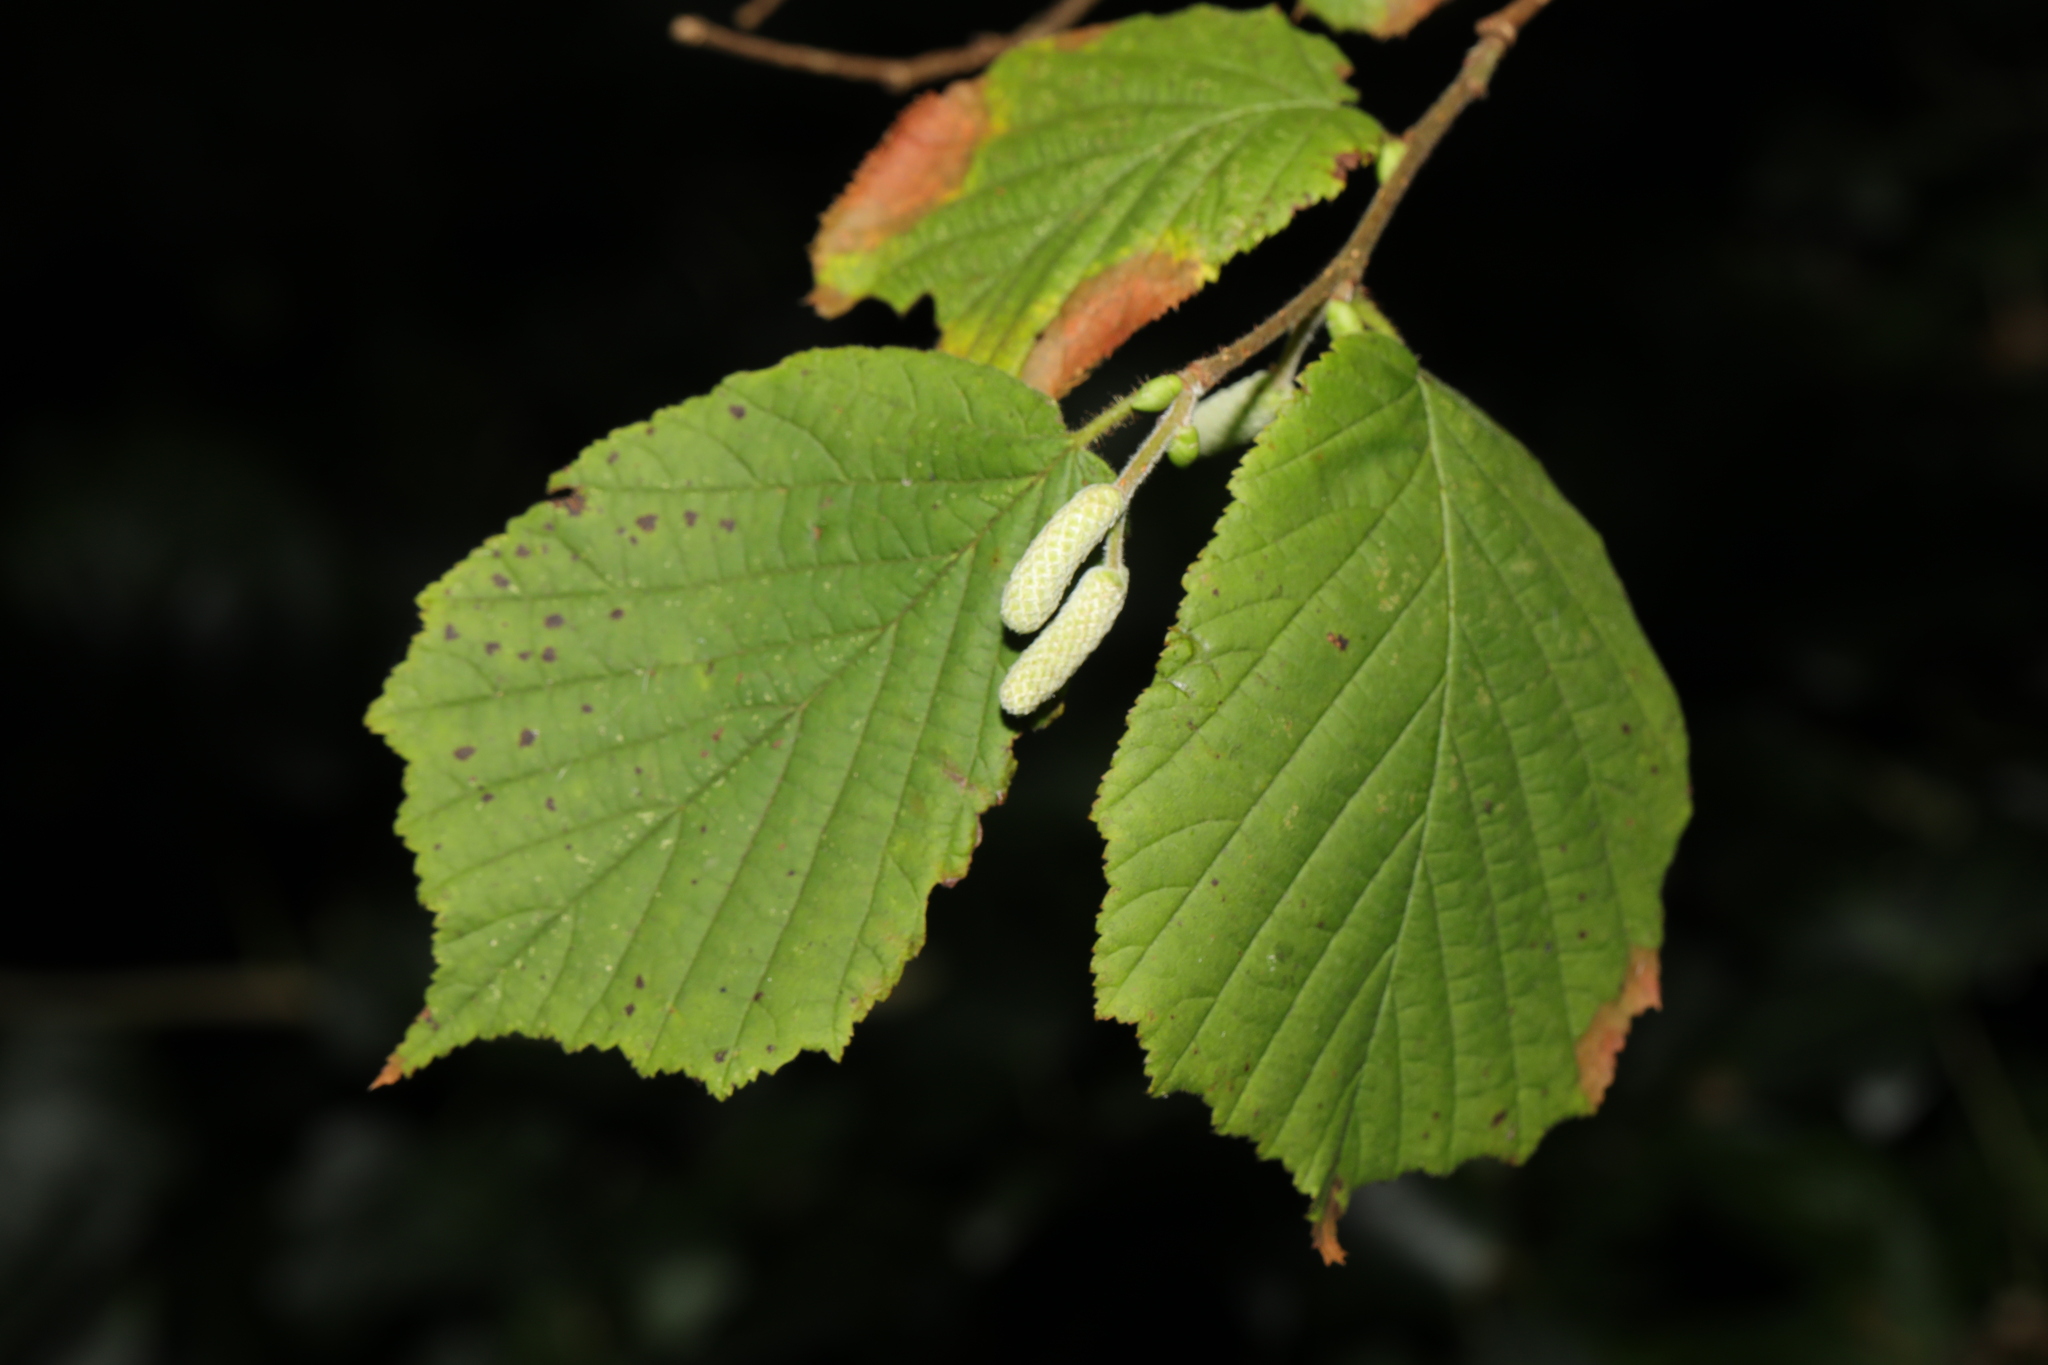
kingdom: Plantae
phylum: Tracheophyta
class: Magnoliopsida
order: Fagales
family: Betulaceae
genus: Corylus
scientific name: Corylus avellana
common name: European hazel
